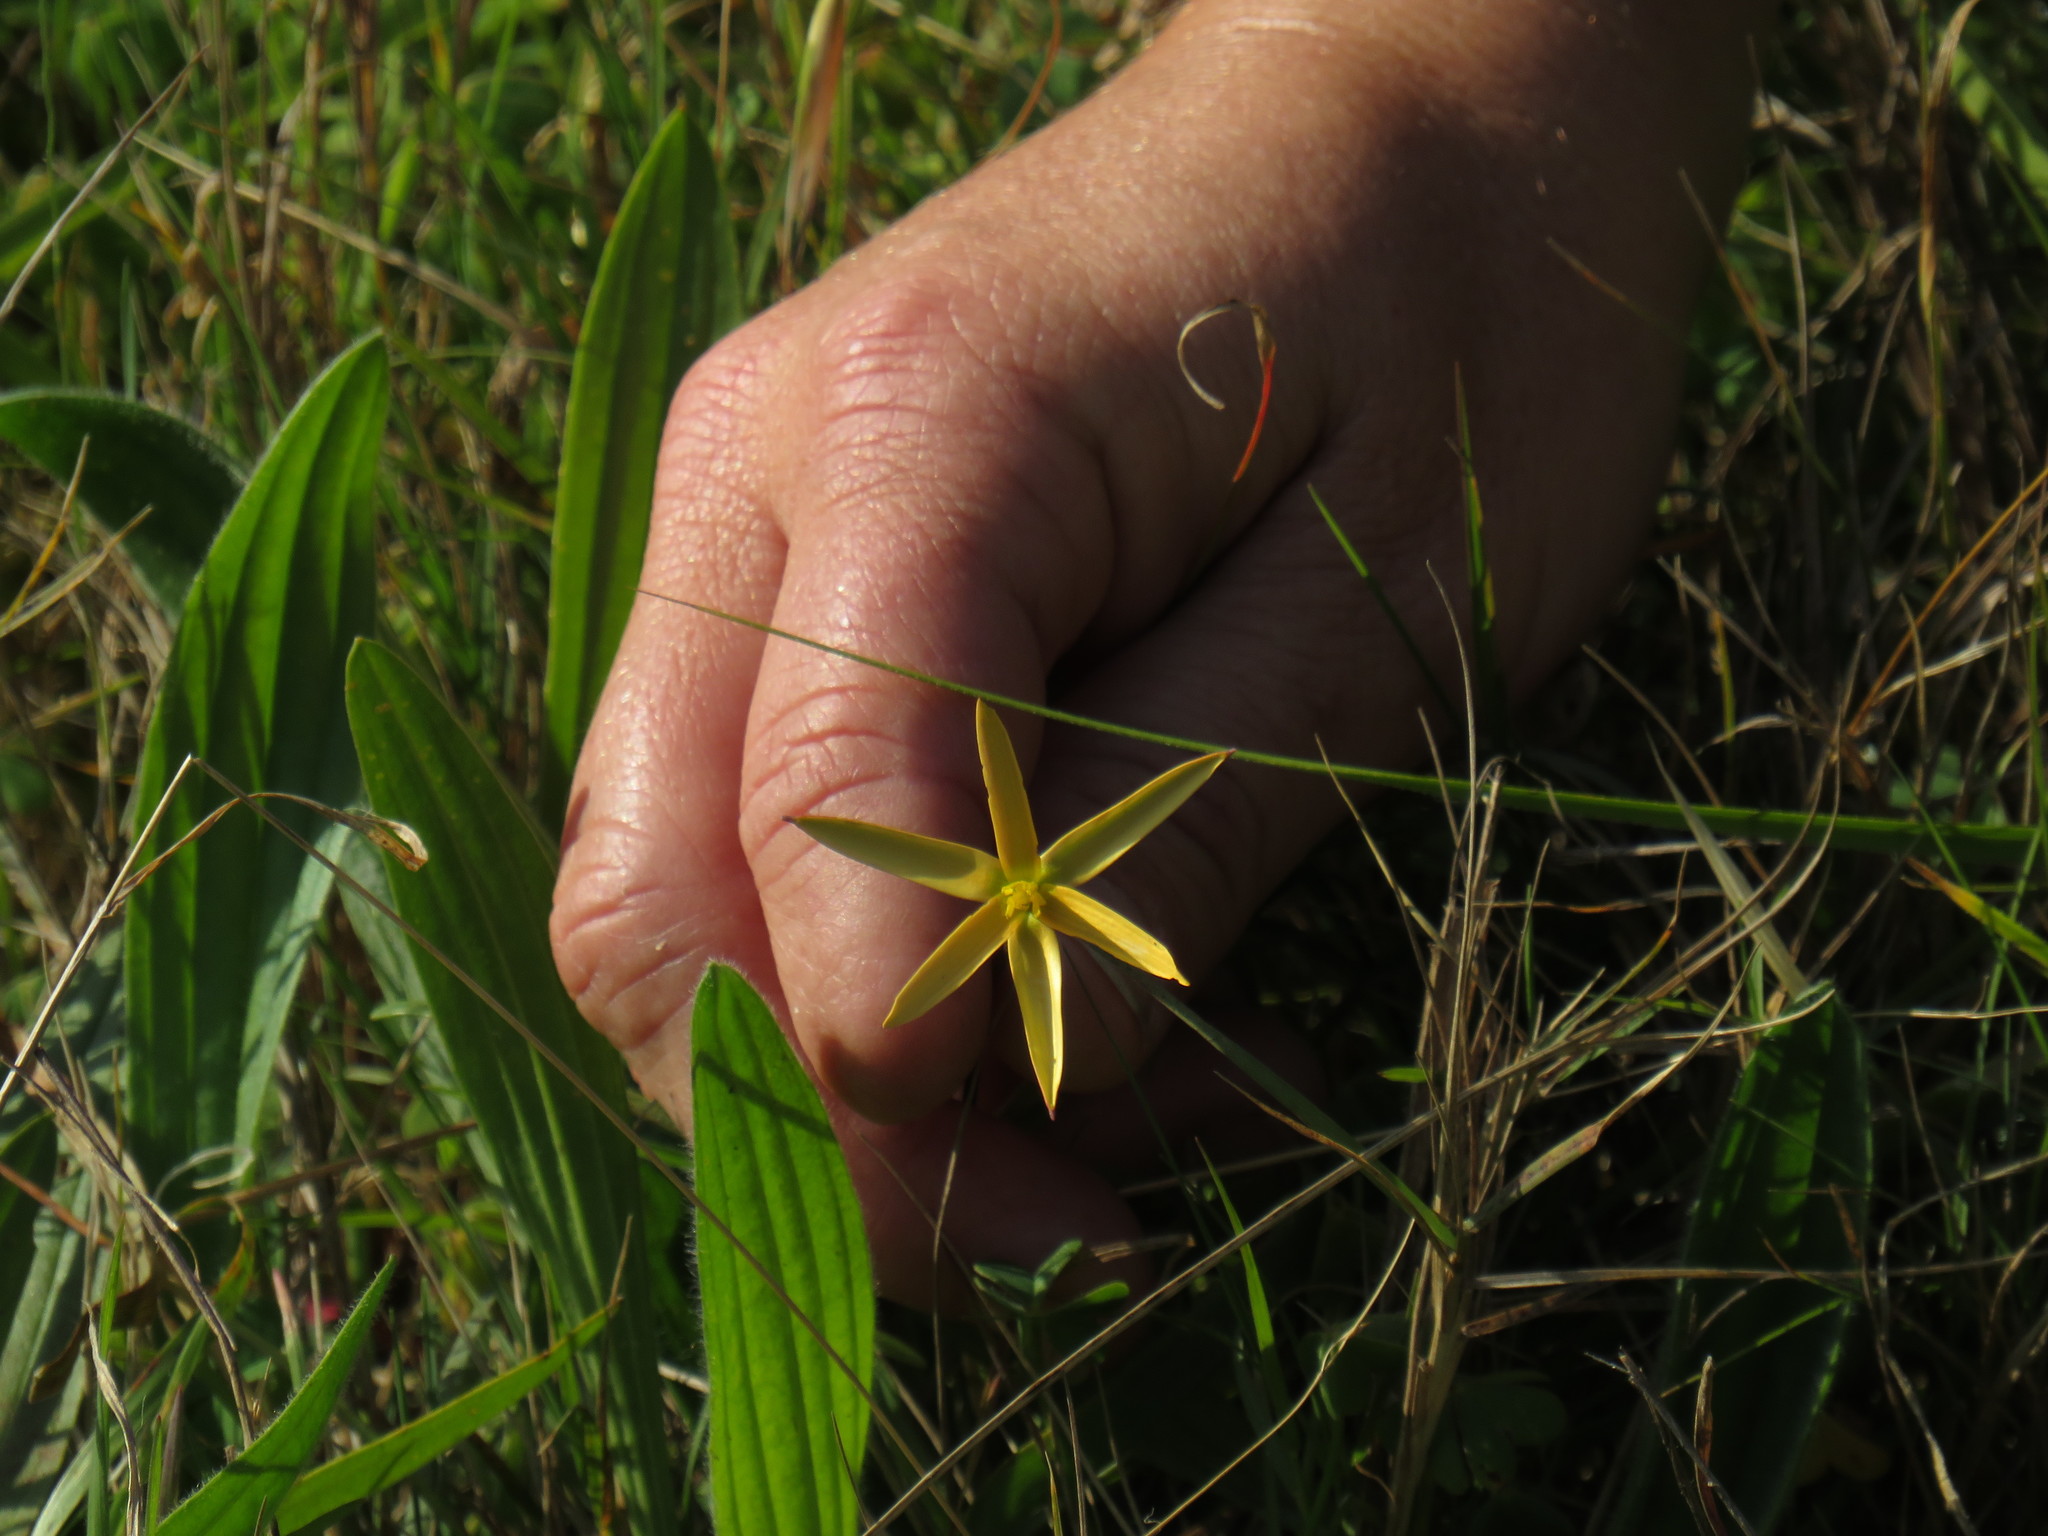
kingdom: Plantae
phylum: Tracheophyta
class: Liliopsida
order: Asparagales
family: Hypoxidaceae
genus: Pauridia
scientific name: Pauridia serrata
